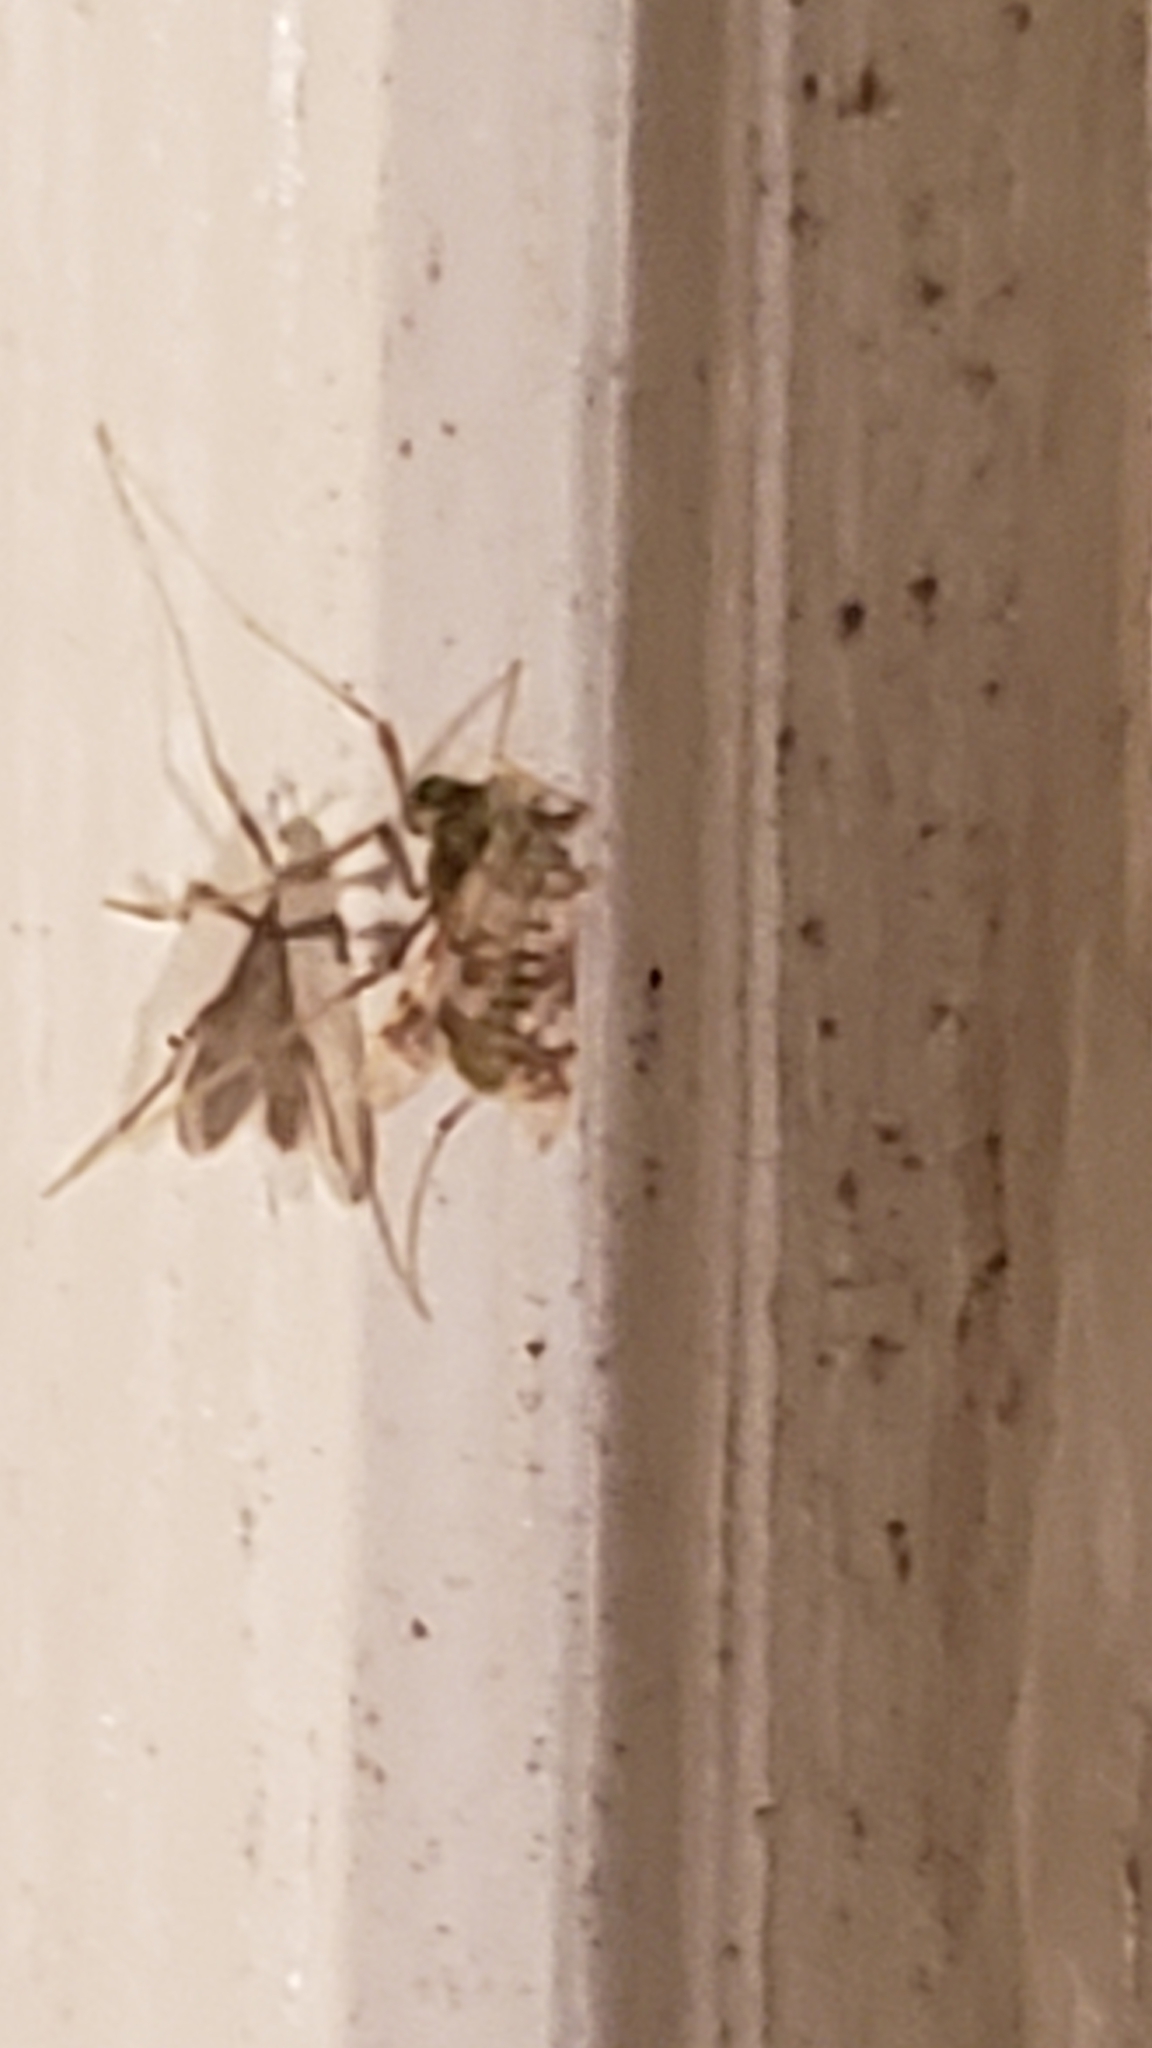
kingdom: Animalia
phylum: Arthropoda
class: Insecta
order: Diptera
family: Chironomidae
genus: Psectrotanypus
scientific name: Psectrotanypus dyari
